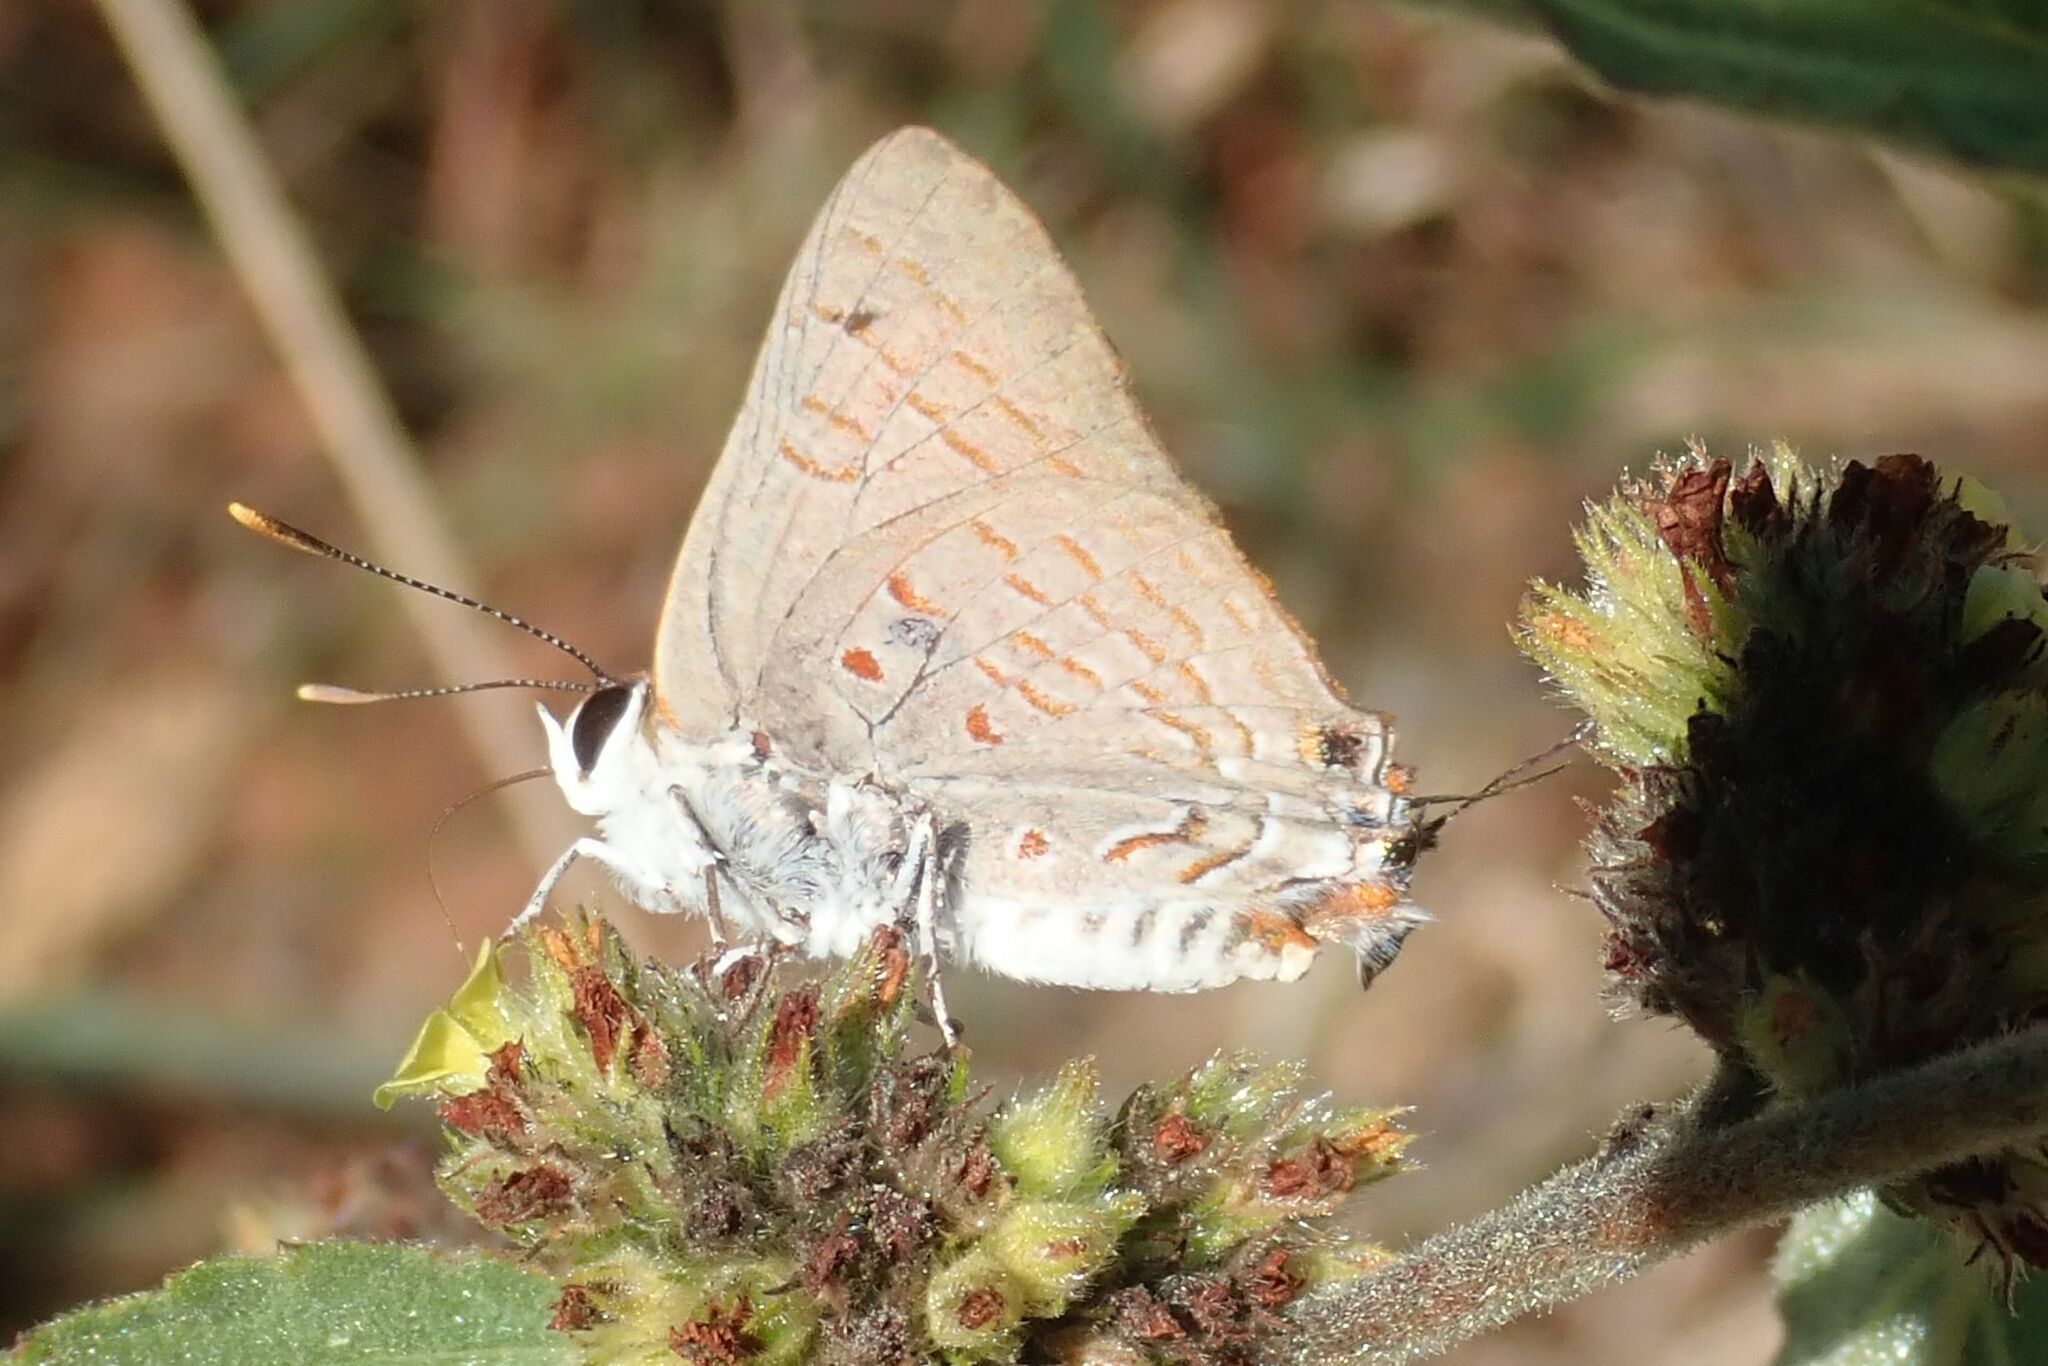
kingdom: Animalia
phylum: Arthropoda
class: Insecta
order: Lepidoptera
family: Lycaenidae
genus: Deudorix
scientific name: Deudorix dinochares
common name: Apricot playboy
